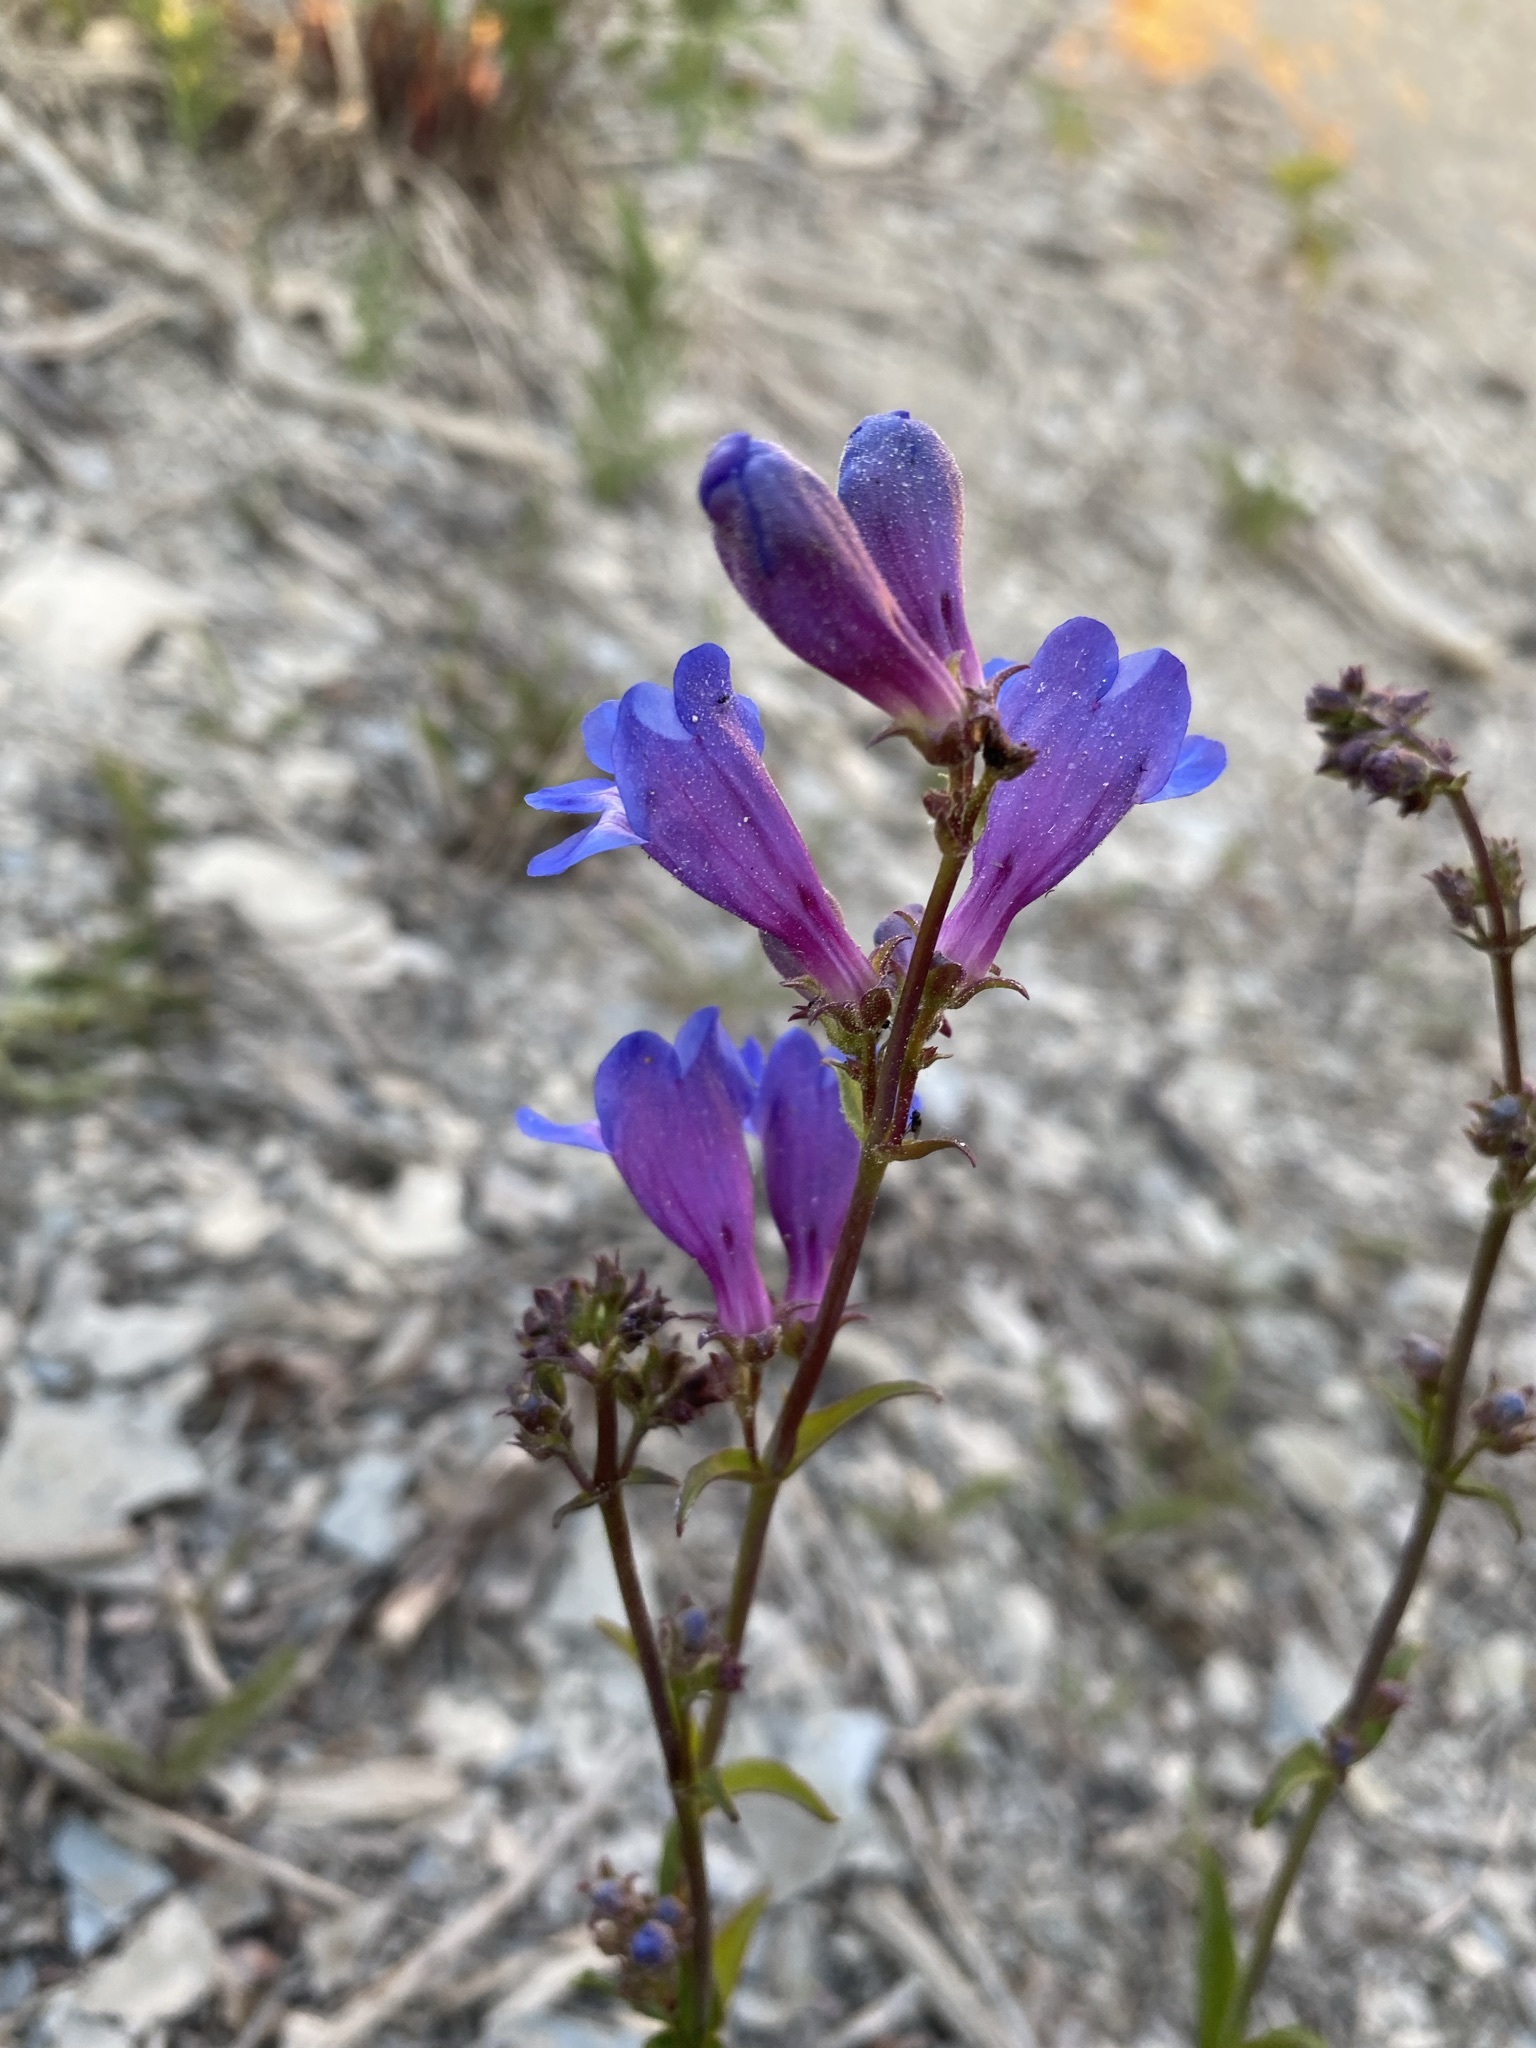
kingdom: Plantae
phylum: Tracheophyta
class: Magnoliopsida
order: Lamiales
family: Plantaginaceae
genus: Penstemon
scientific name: Penstemon subglaber
